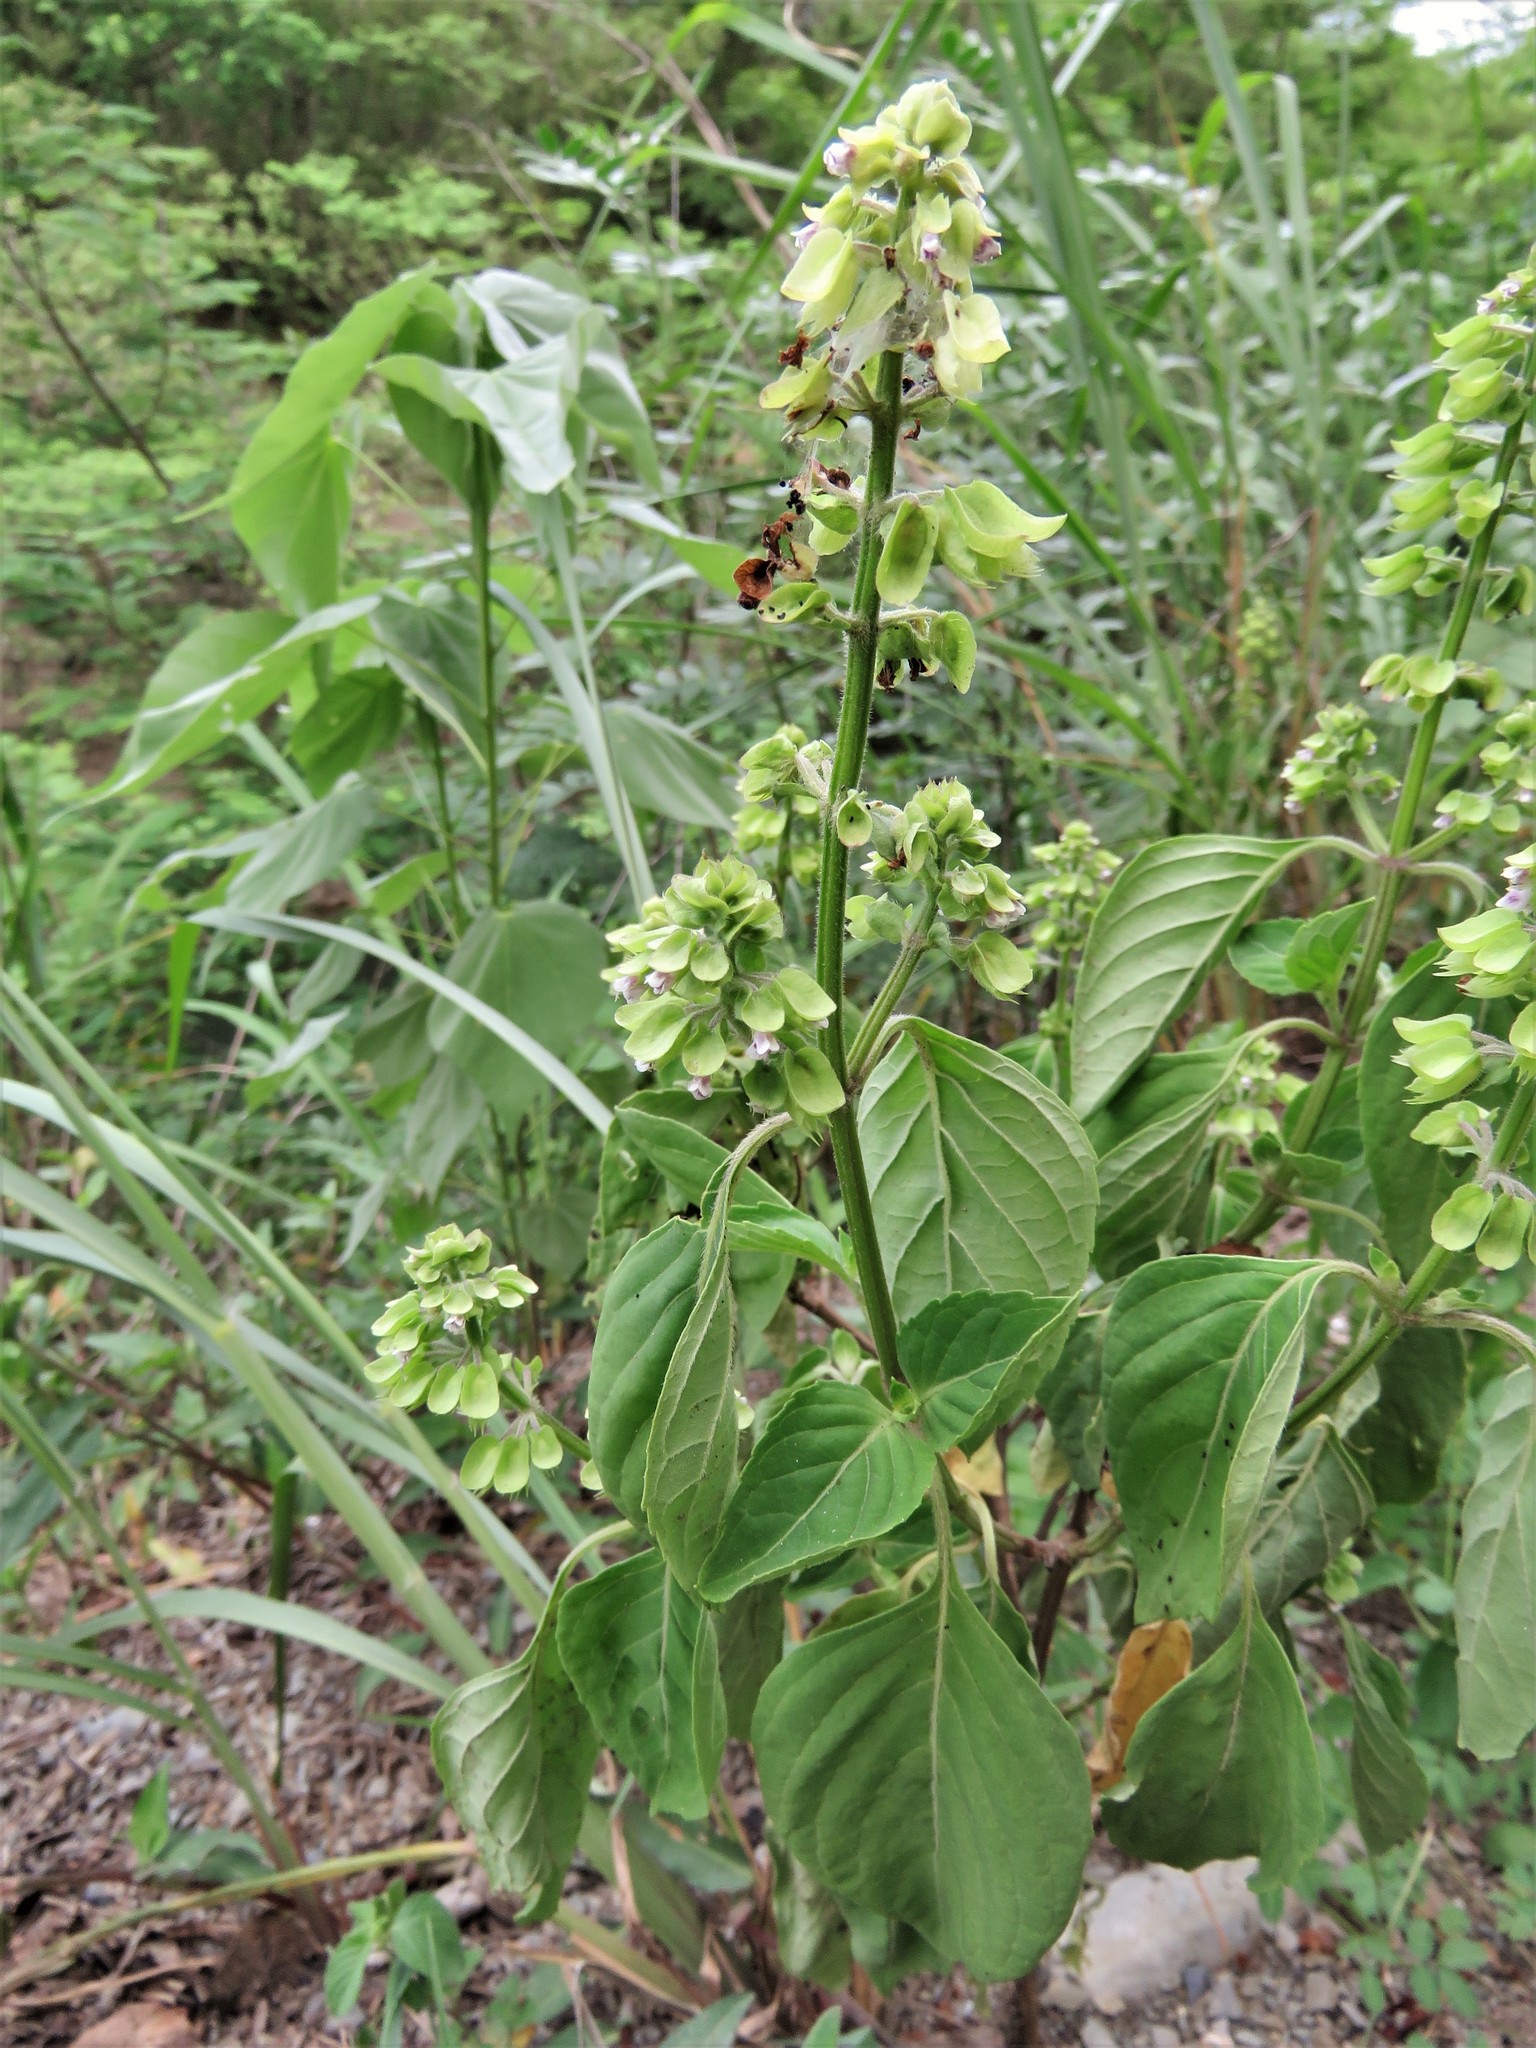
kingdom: Plantae
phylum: Tracheophyta
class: Magnoliopsida
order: Lamiales
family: Lamiaceae
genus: Ocimum
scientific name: Ocimum campechianum
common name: Mosquito basil
